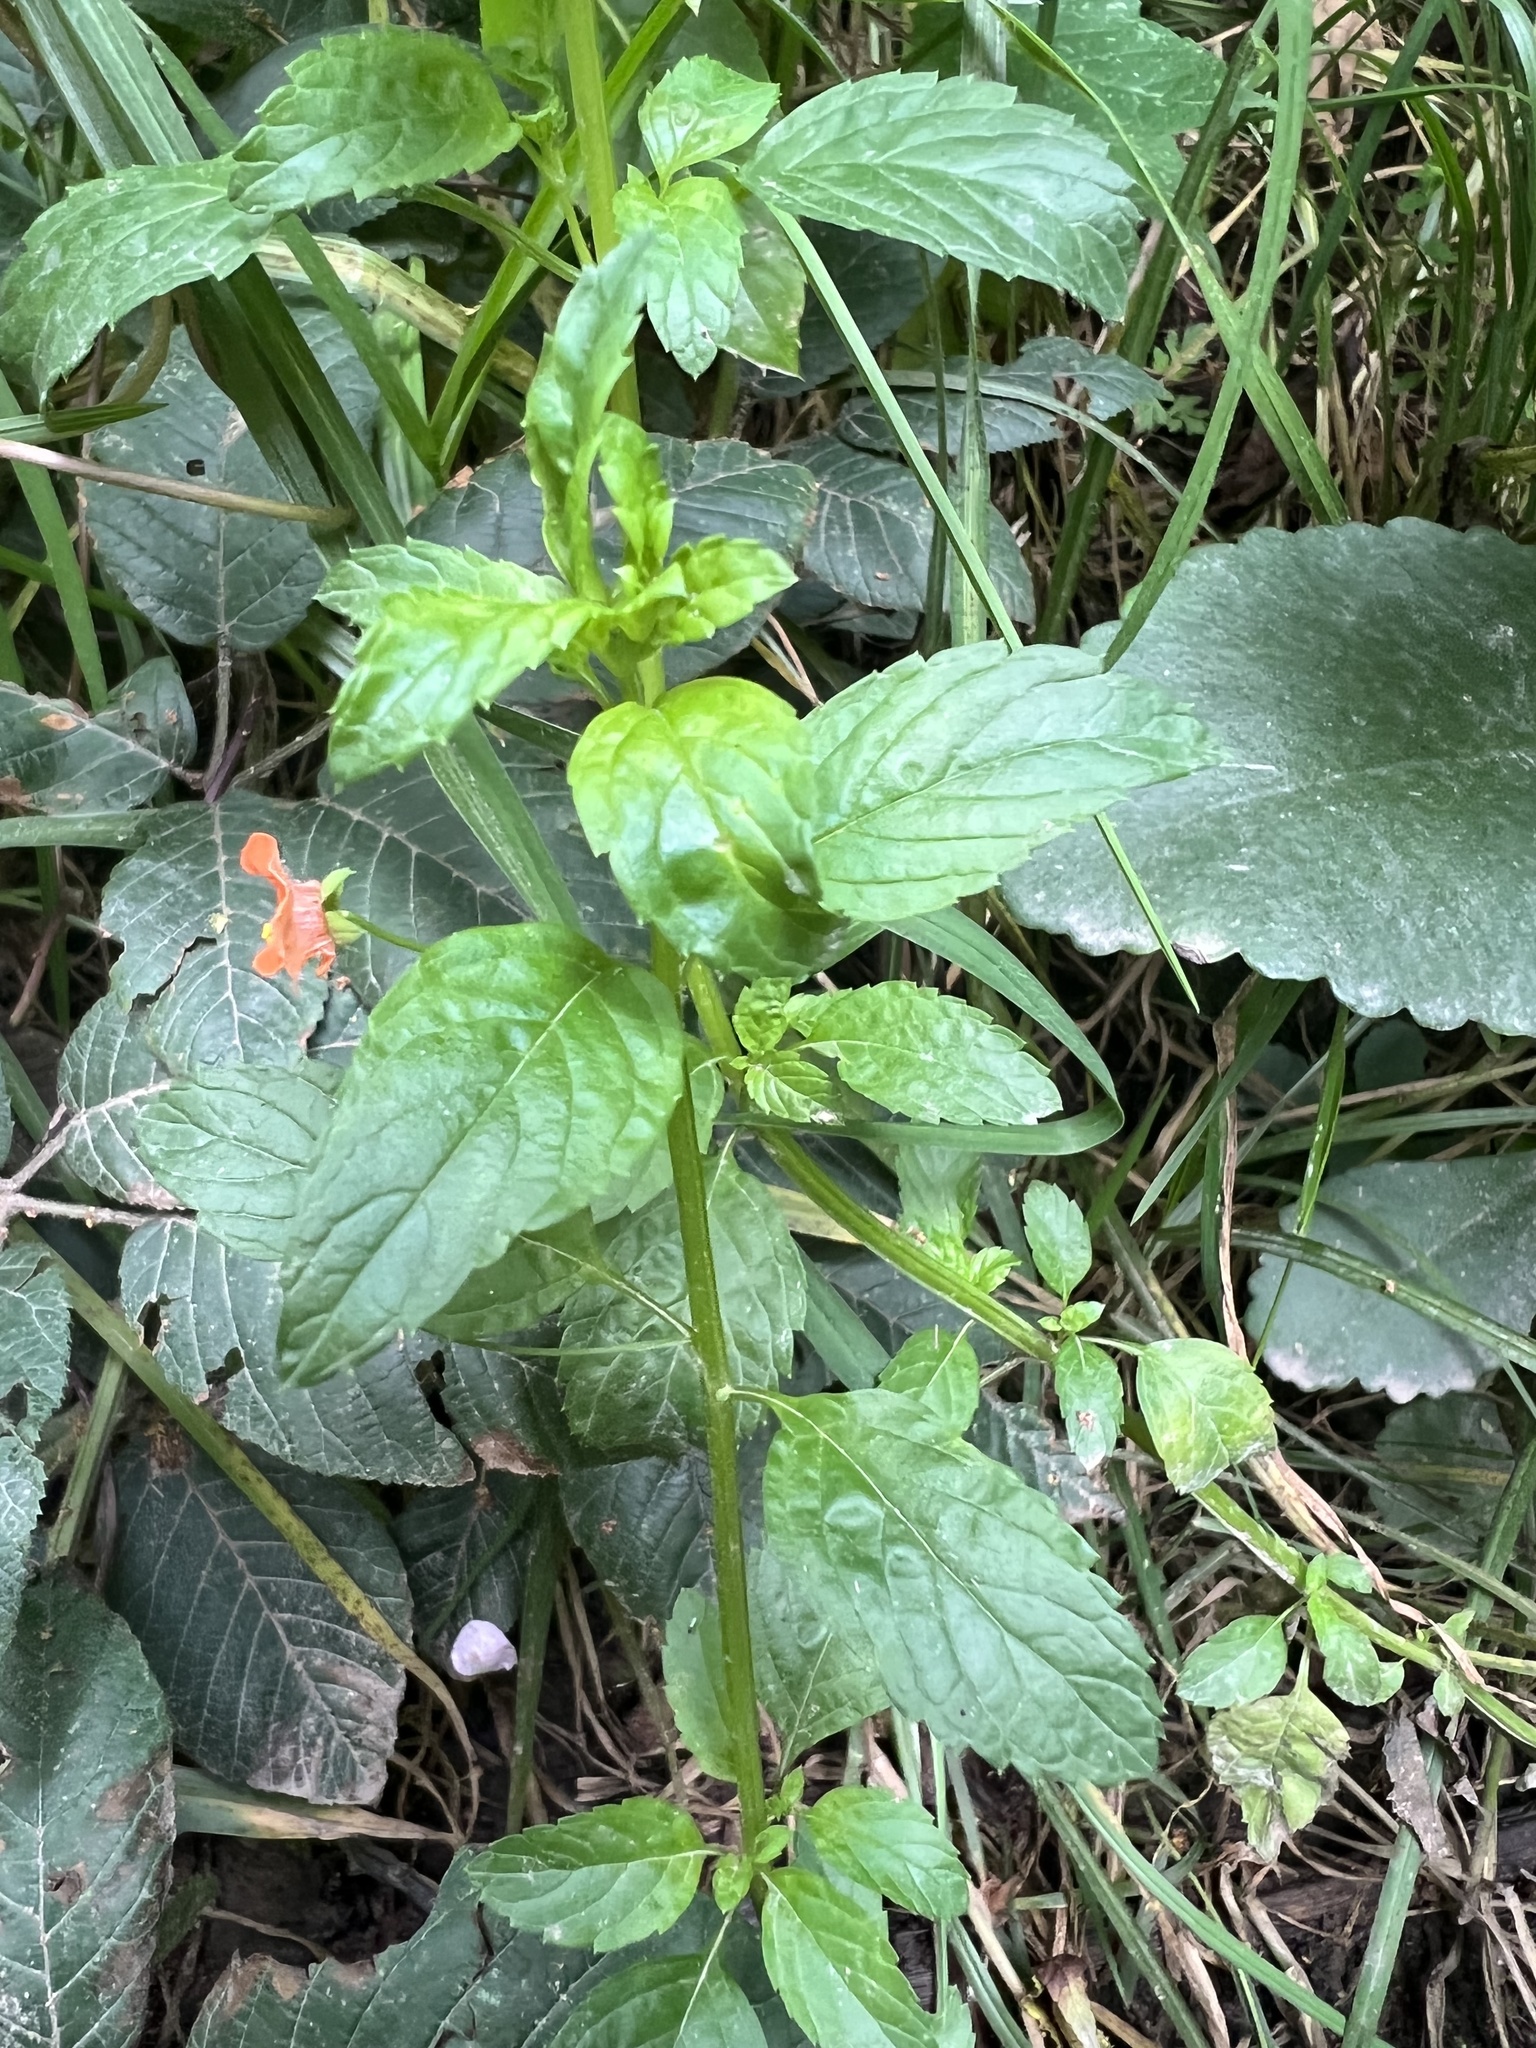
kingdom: Plantae
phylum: Tracheophyta
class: Magnoliopsida
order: Lamiales
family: Scrophulariaceae
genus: Alonsoa
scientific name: Alonsoa meridionalis
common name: Maskflower
